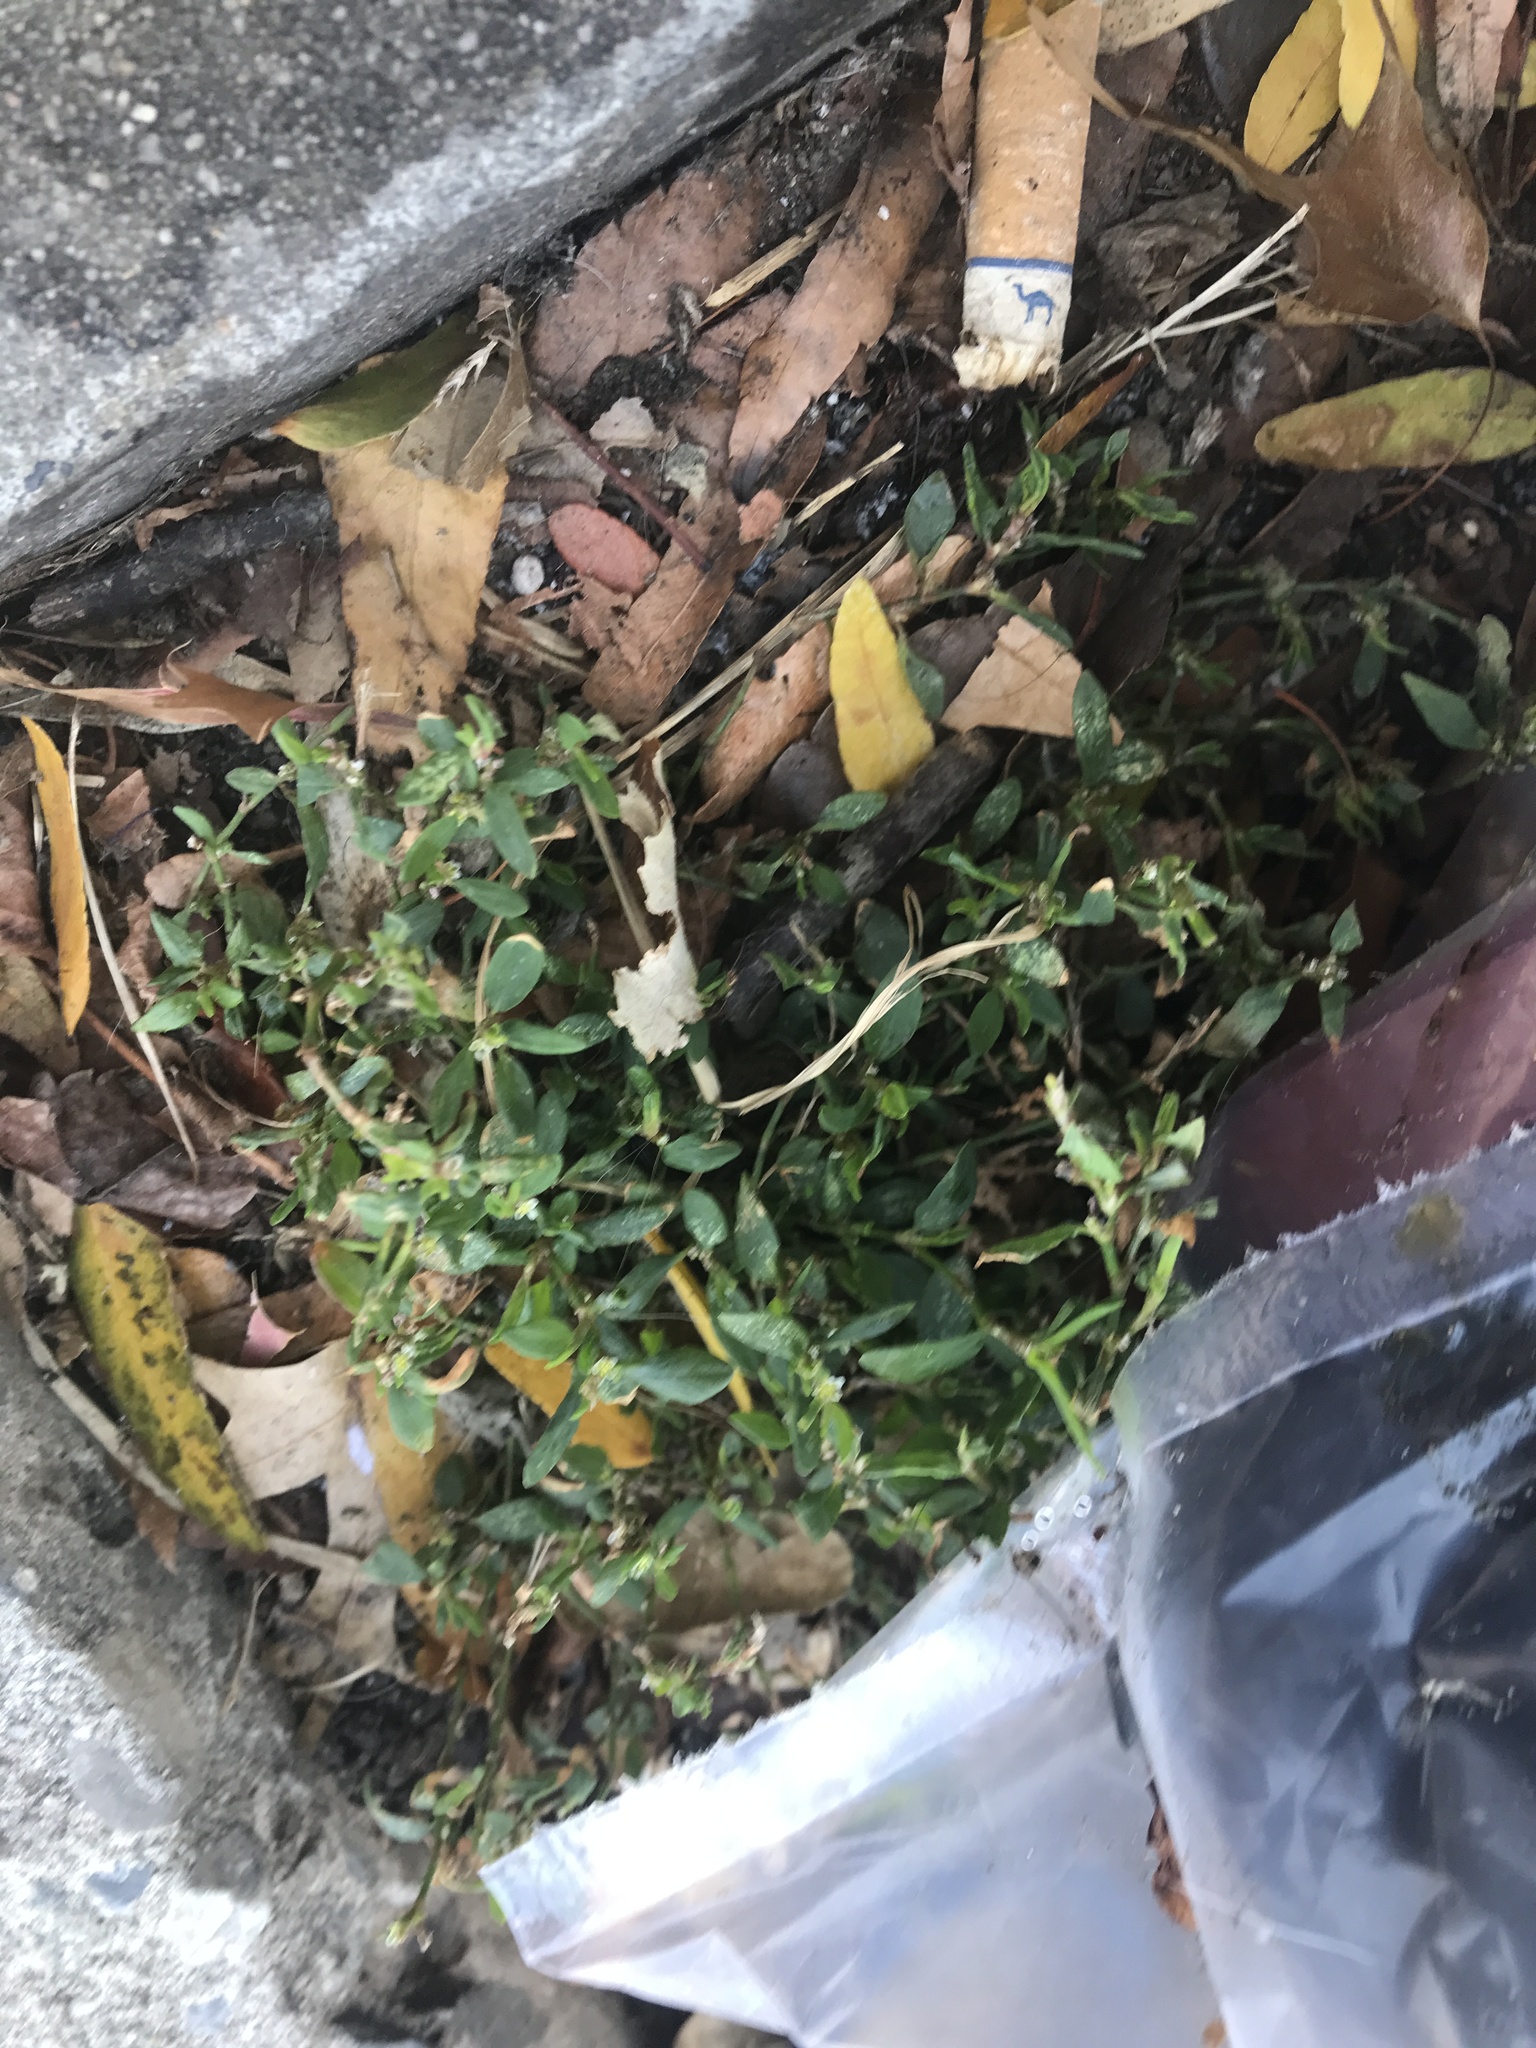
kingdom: Plantae
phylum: Tracheophyta
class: Magnoliopsida
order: Caryophyllales
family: Polygonaceae
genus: Polygonum
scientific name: Polygonum aviculare
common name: Prostrate knotweed
